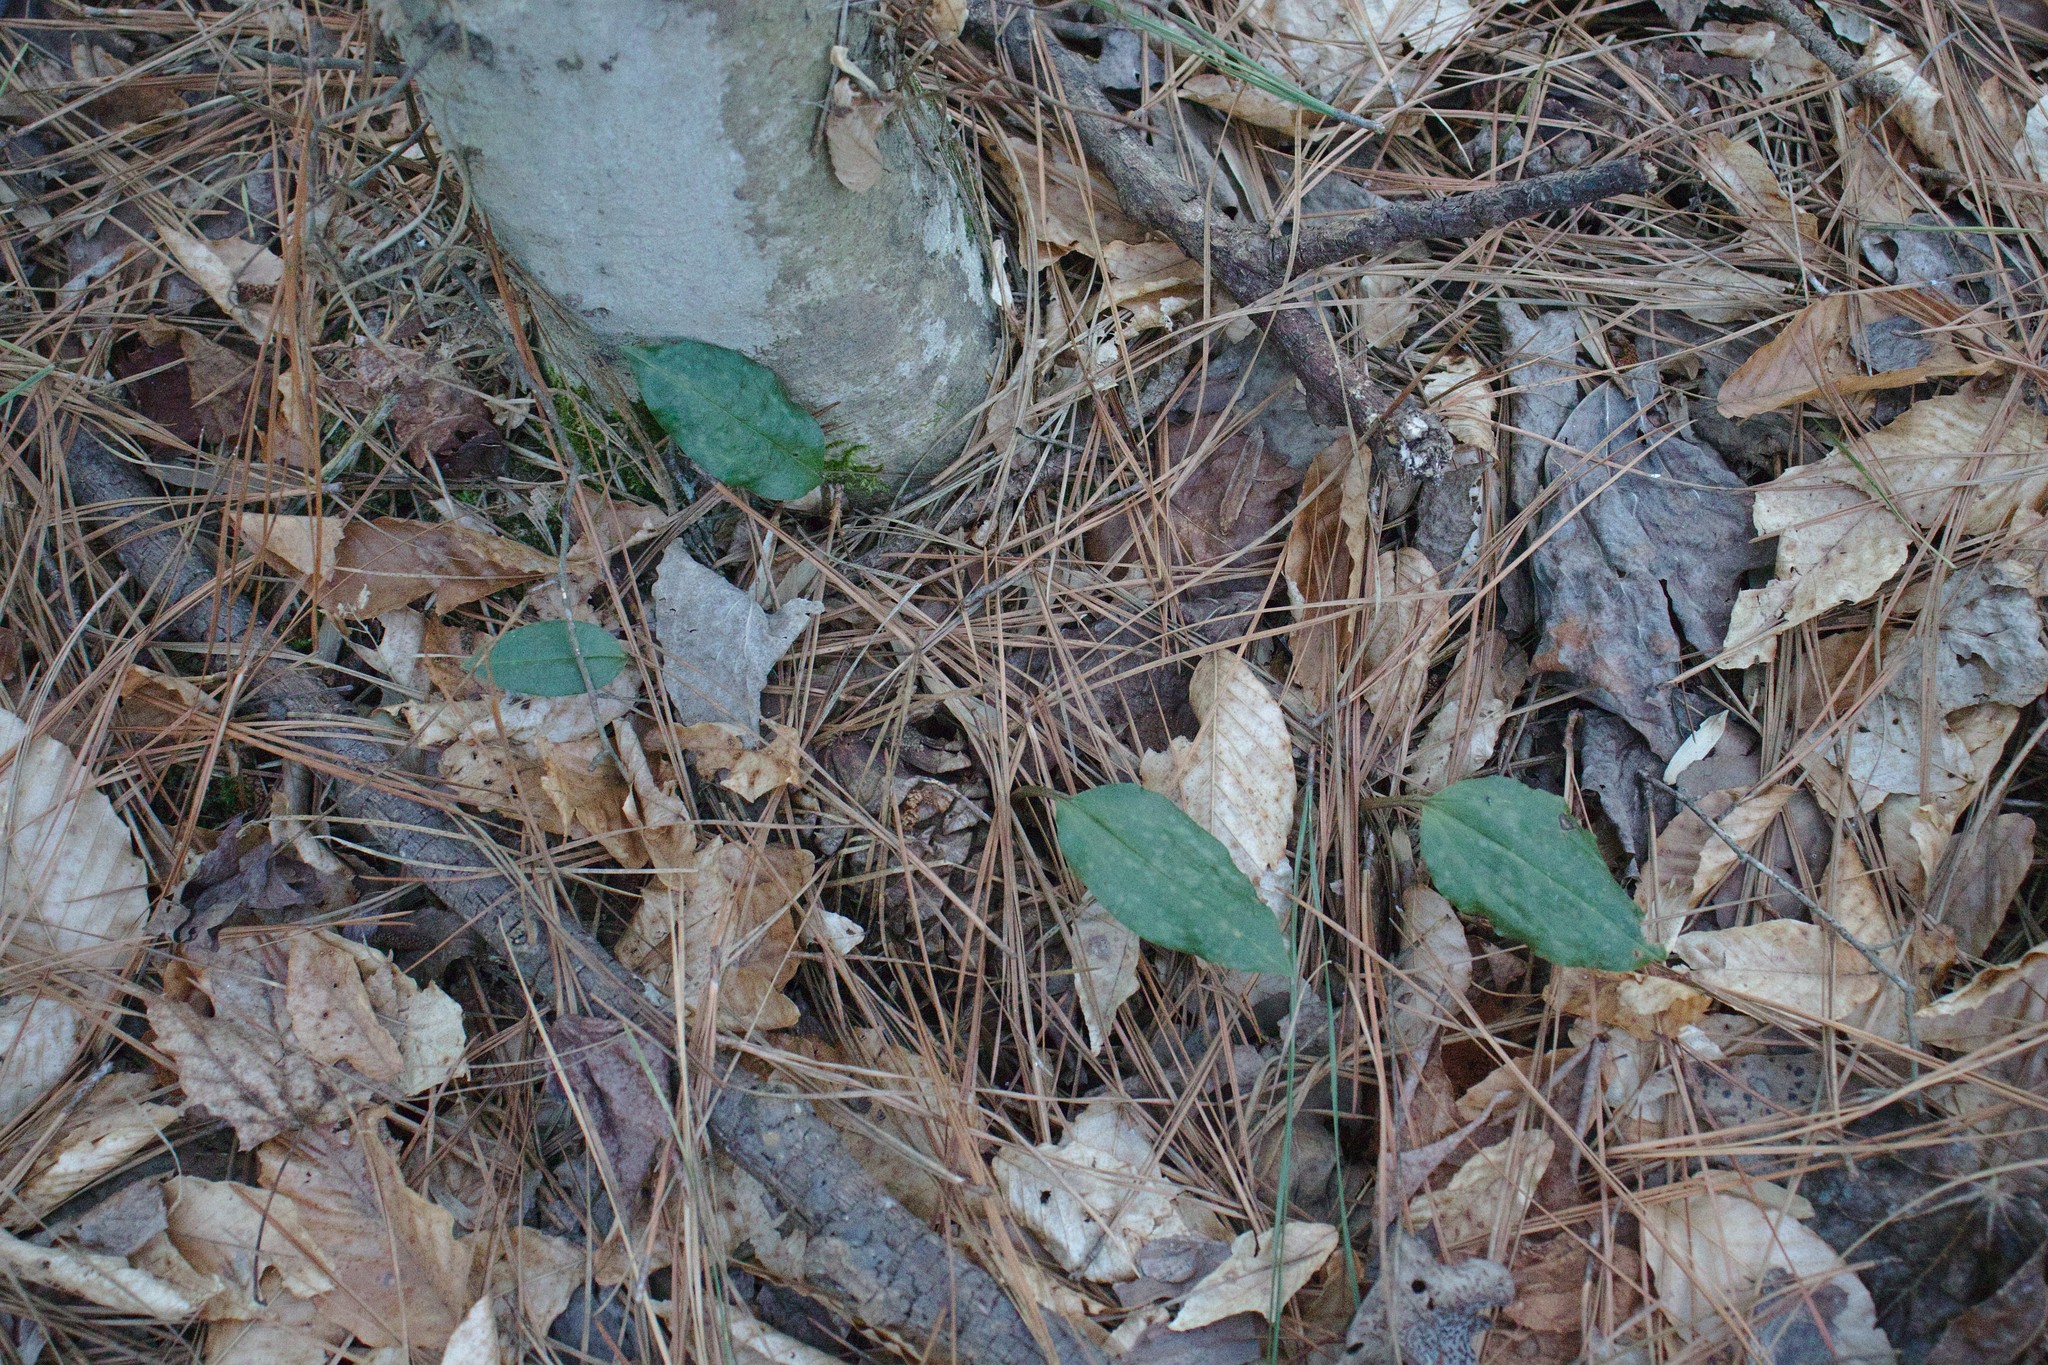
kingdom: Plantae
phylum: Tracheophyta
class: Liliopsida
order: Asparagales
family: Orchidaceae
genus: Tipularia
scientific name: Tipularia discolor
